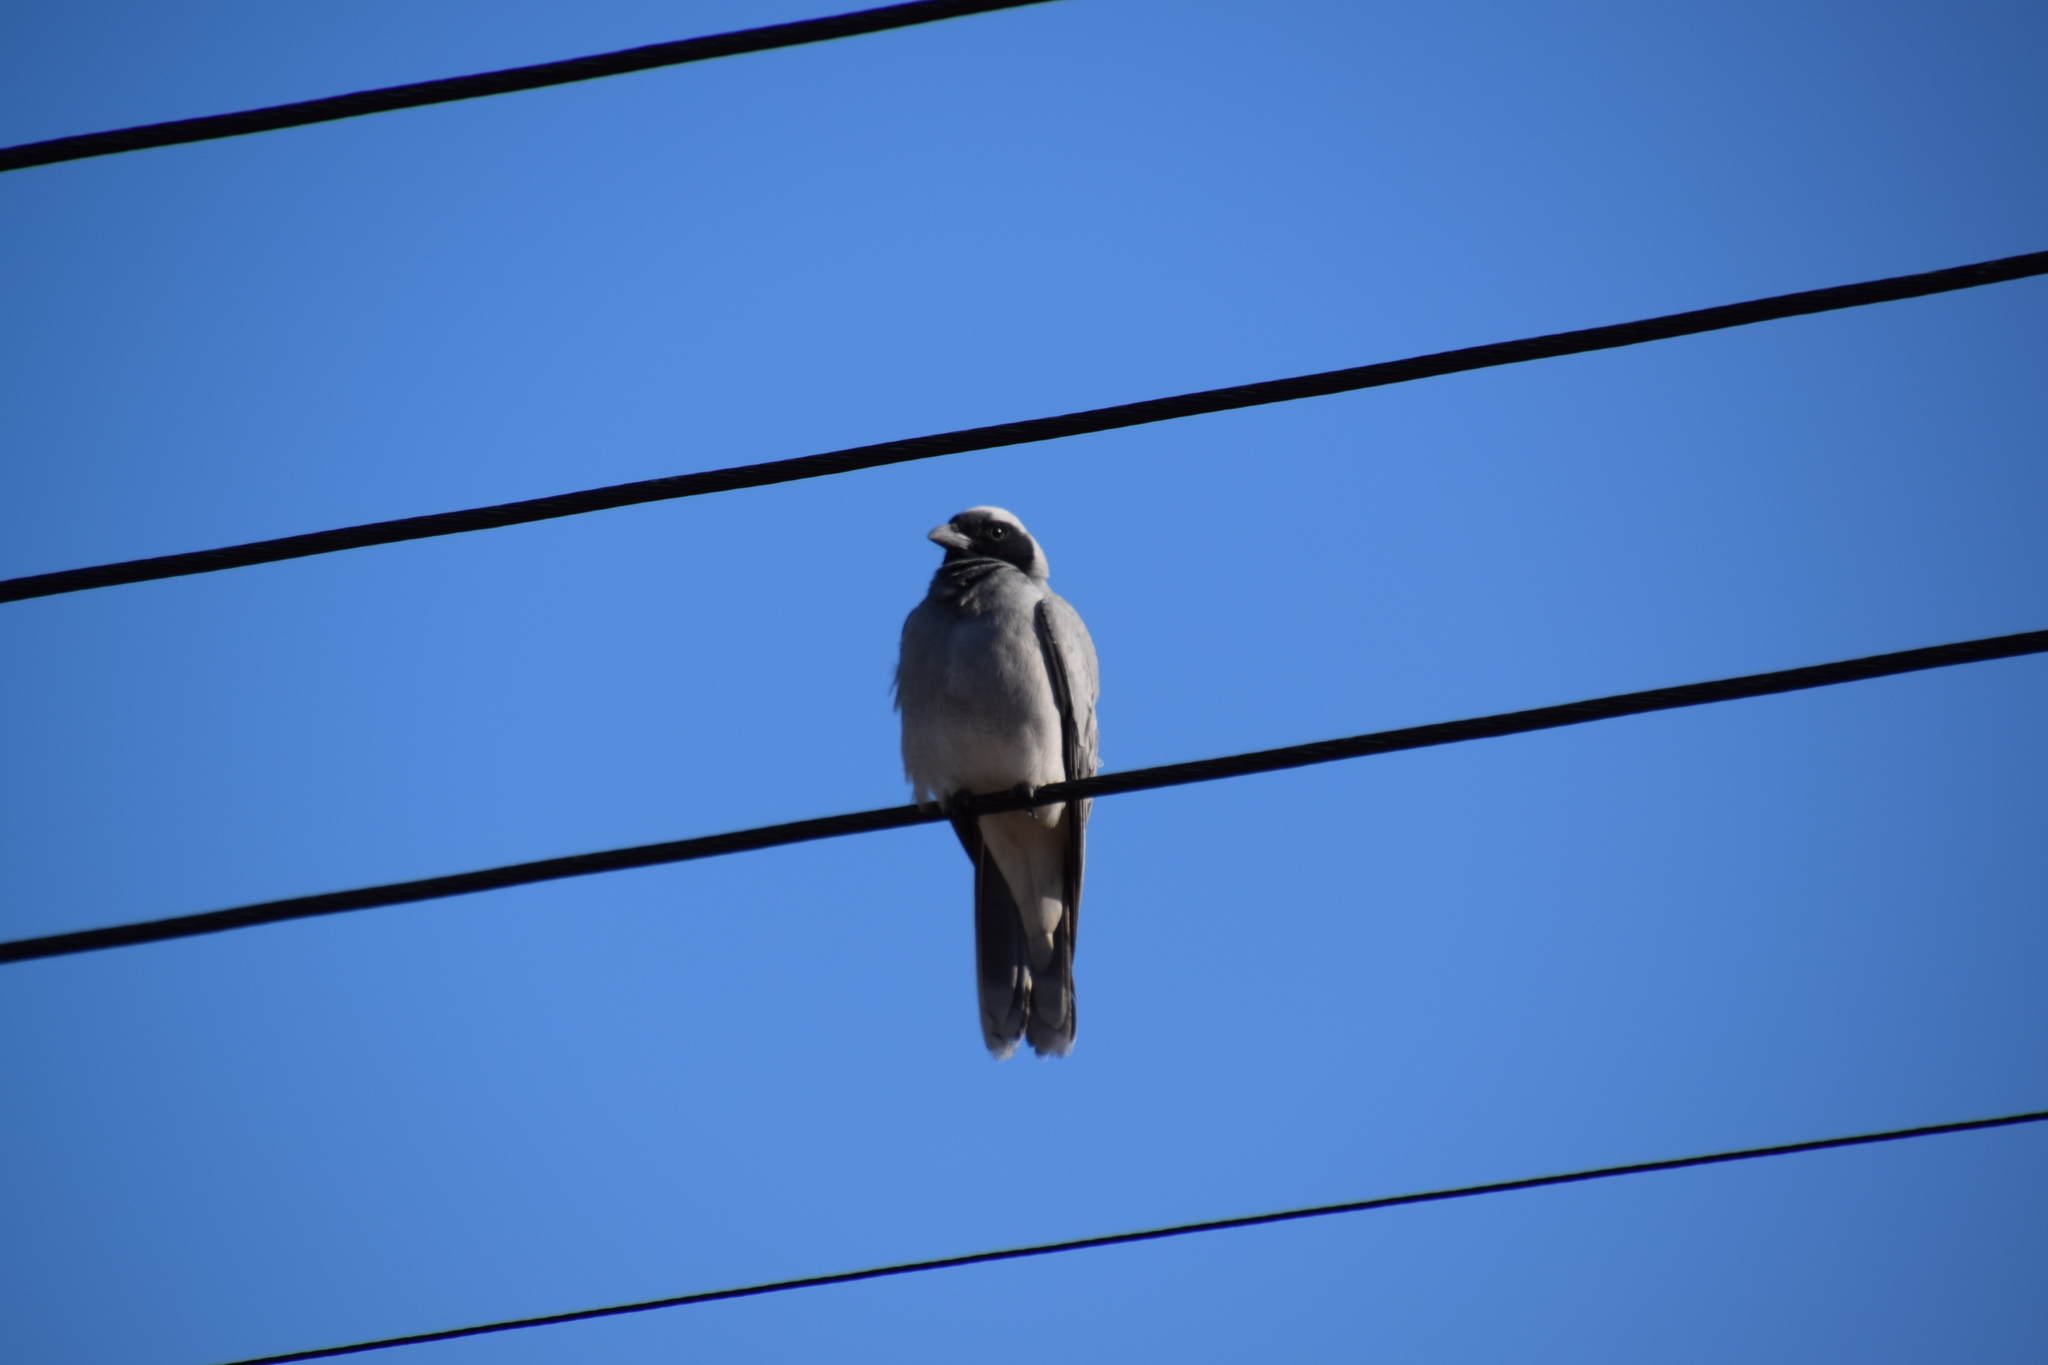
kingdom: Animalia
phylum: Chordata
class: Aves
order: Passeriformes
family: Campephagidae
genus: Coracina
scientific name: Coracina novaehollandiae
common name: Black-faced cuckooshrike
